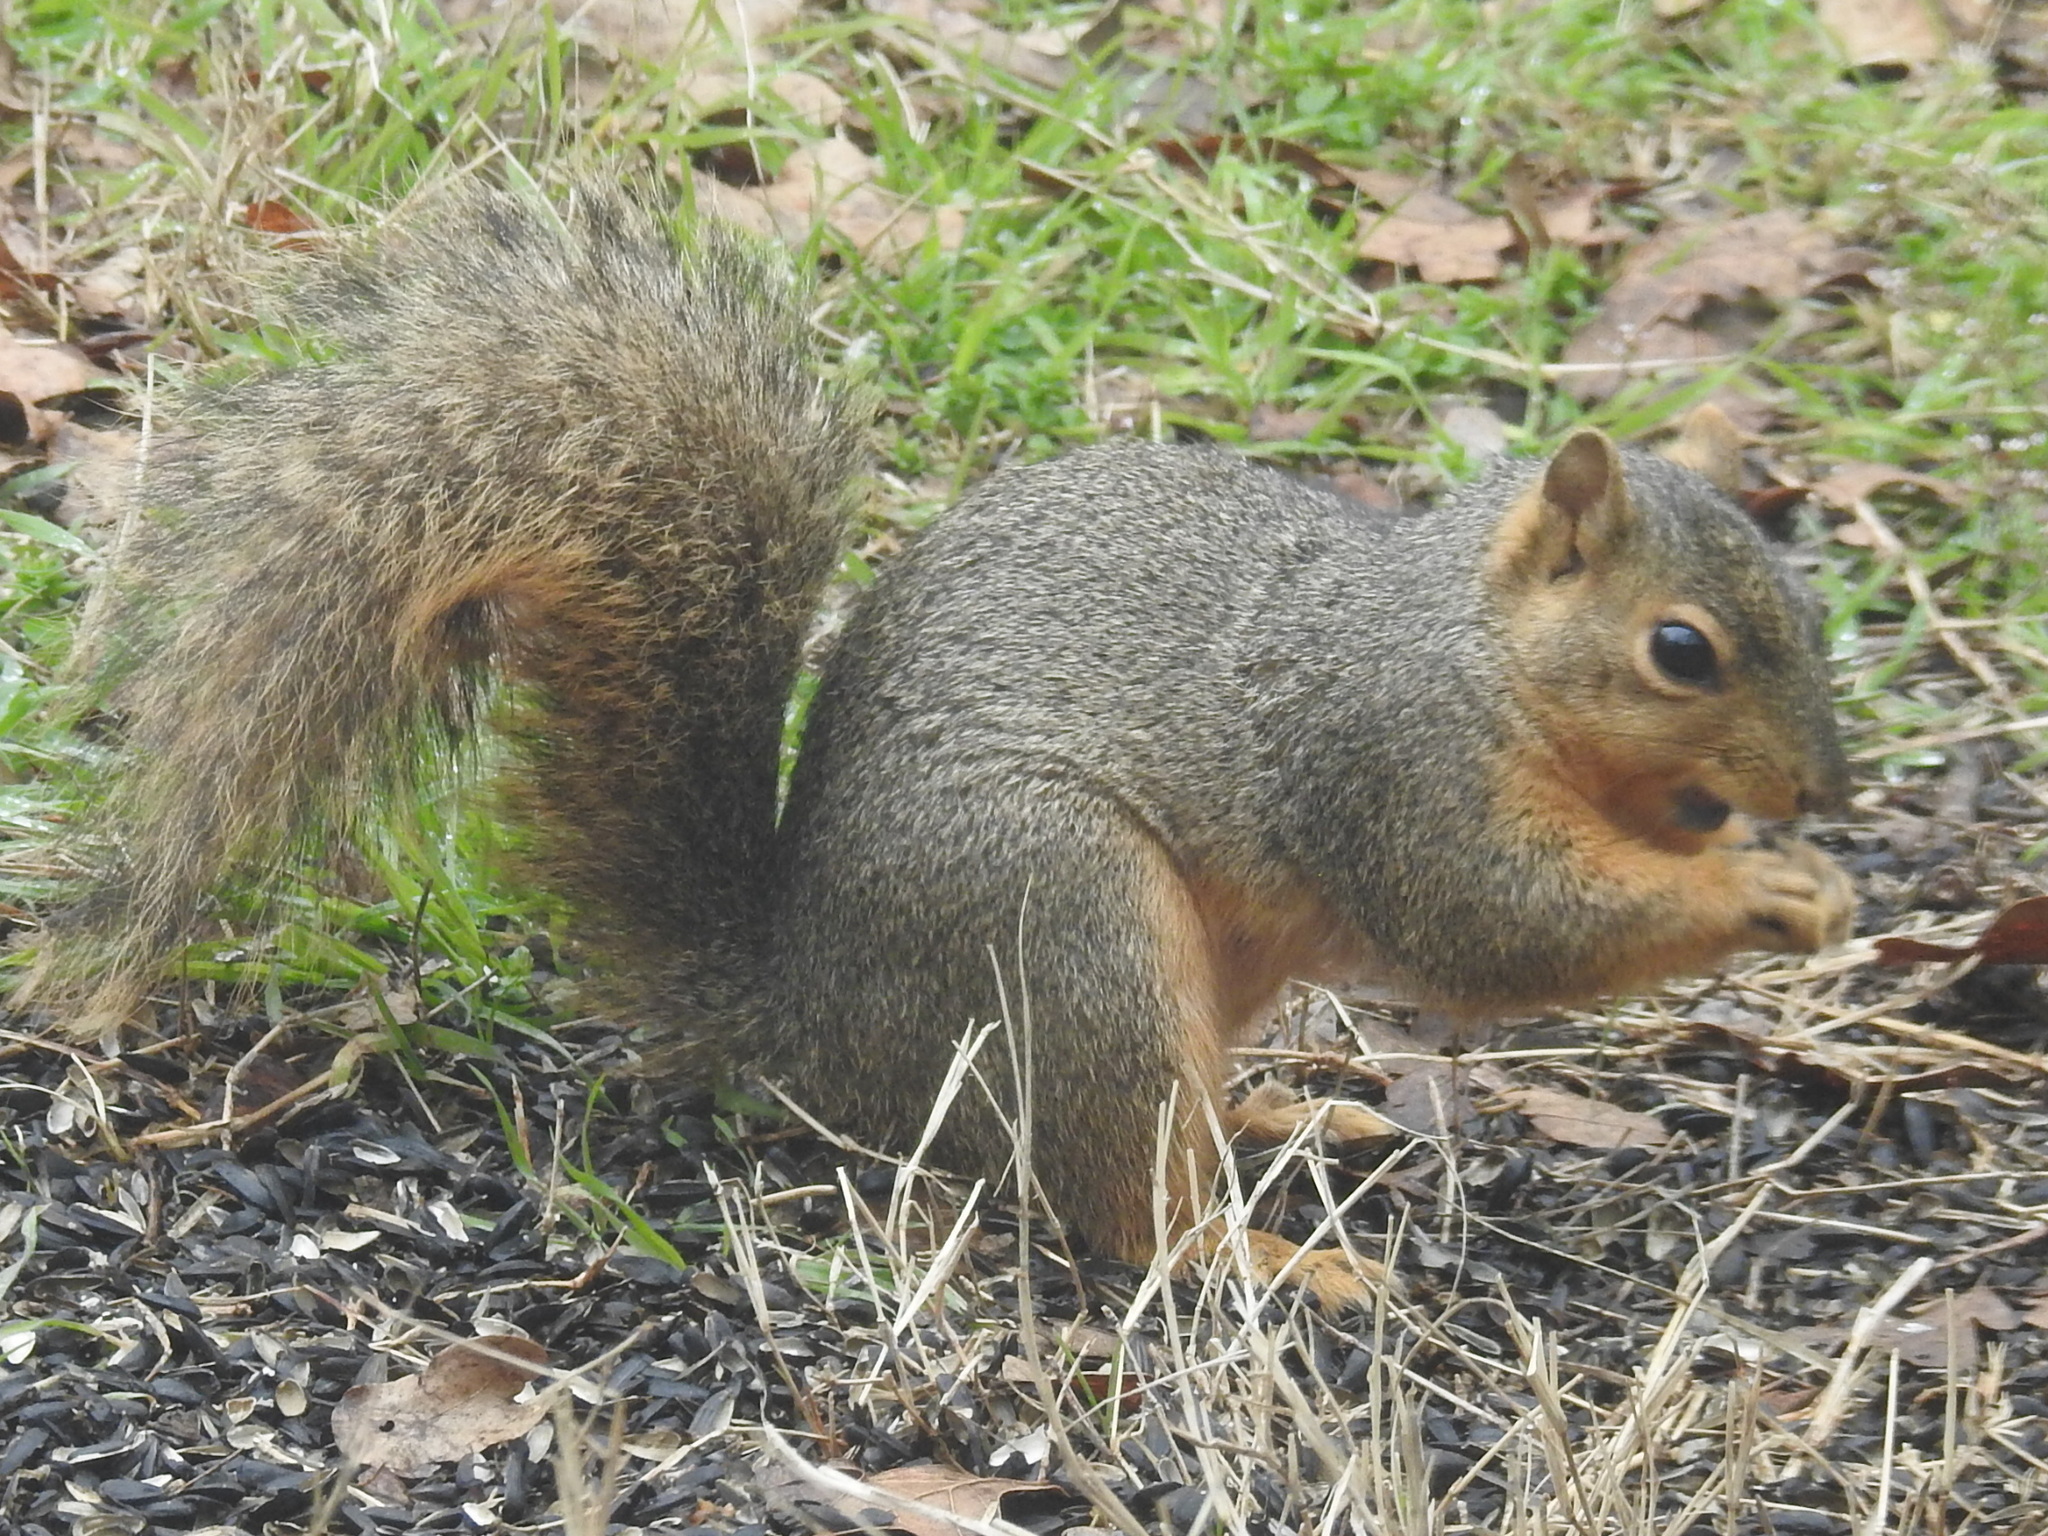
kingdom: Animalia
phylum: Chordata
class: Mammalia
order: Rodentia
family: Sciuridae
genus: Sciurus
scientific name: Sciurus niger
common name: Fox squirrel
